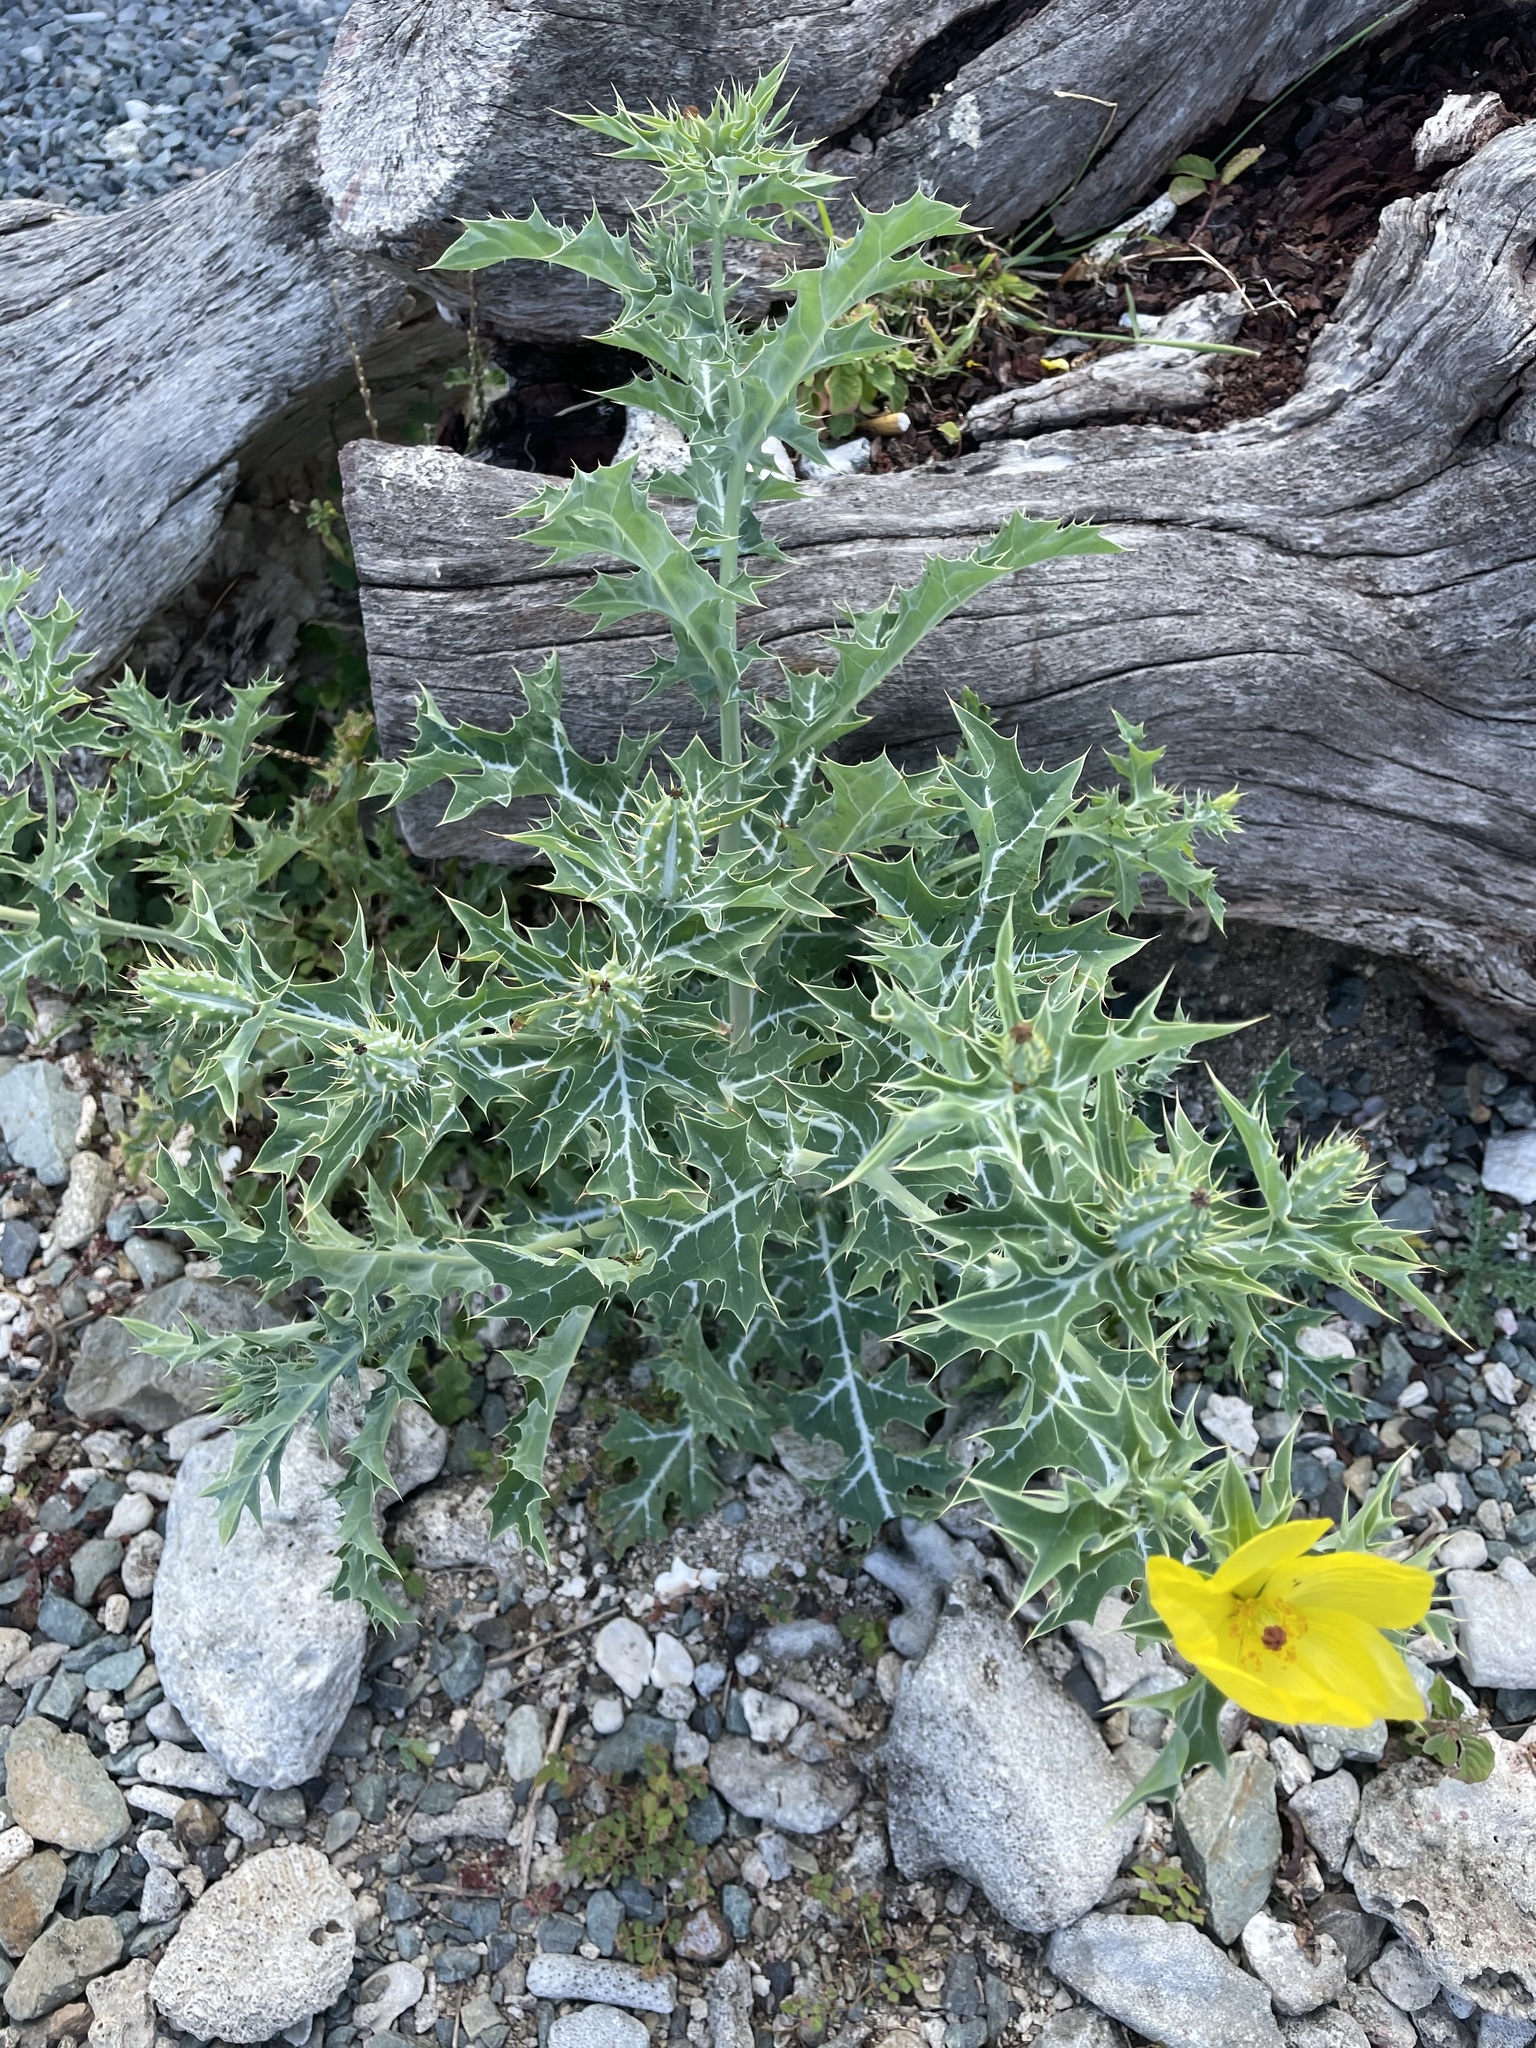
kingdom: Plantae
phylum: Tracheophyta
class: Magnoliopsida
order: Ranunculales
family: Papaveraceae
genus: Argemone
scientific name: Argemone mexicana
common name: Mexican poppy
